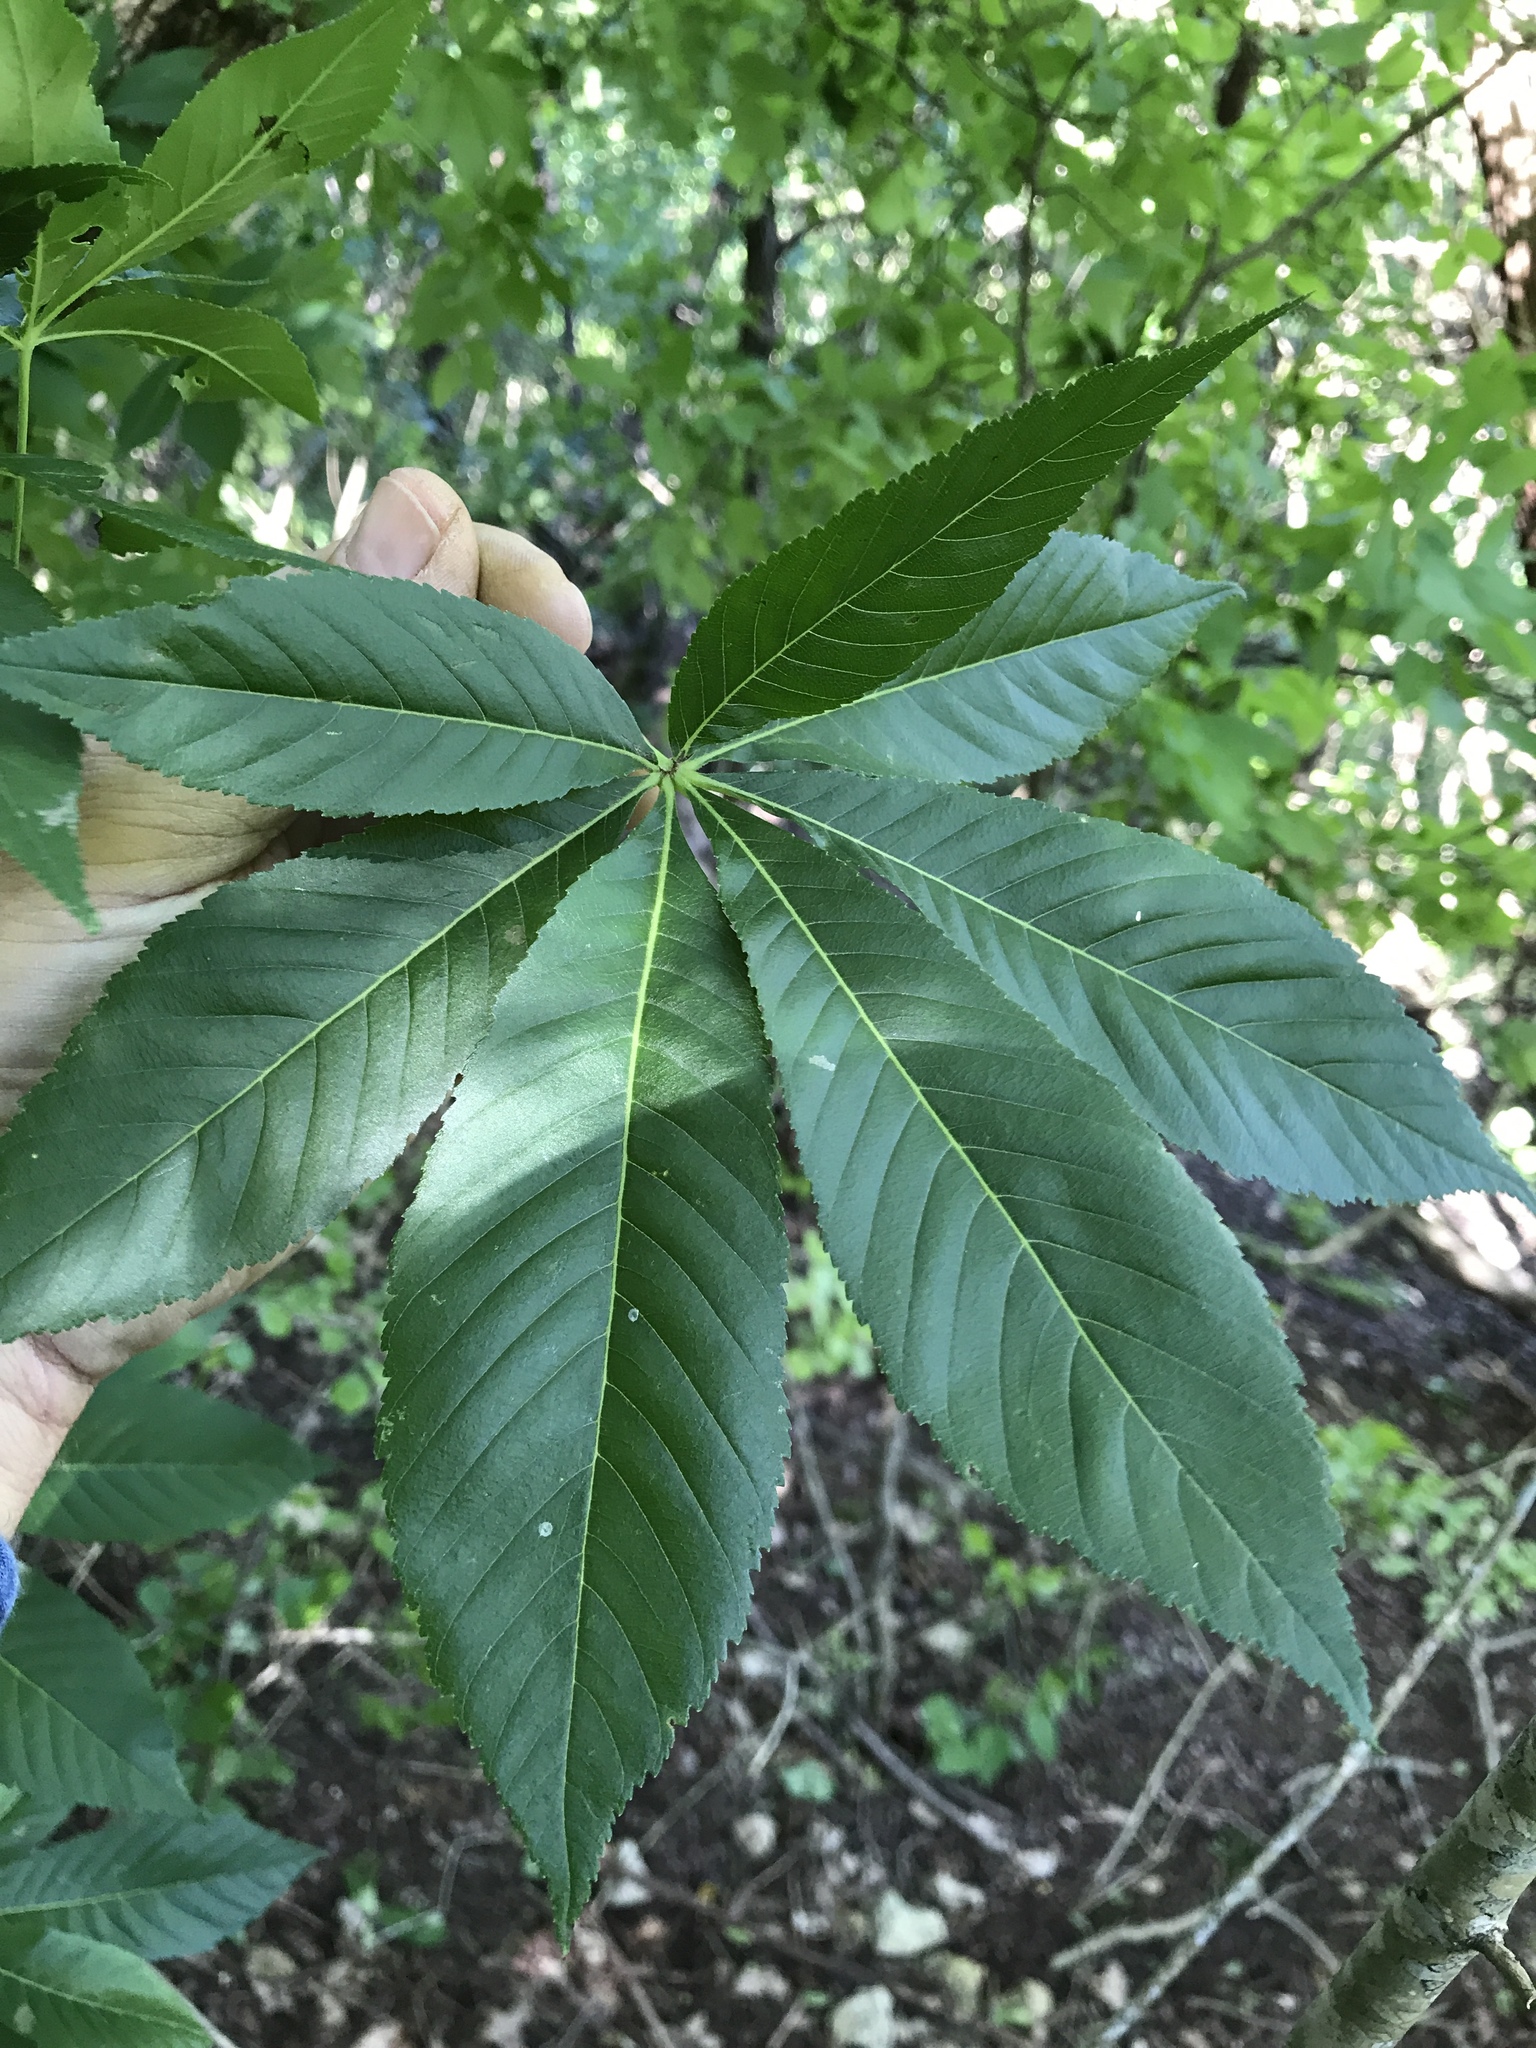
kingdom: Plantae
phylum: Tracheophyta
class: Magnoliopsida
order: Sapindales
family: Sapindaceae
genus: Aesculus
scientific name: Aesculus glabra
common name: Ohio buckeye
